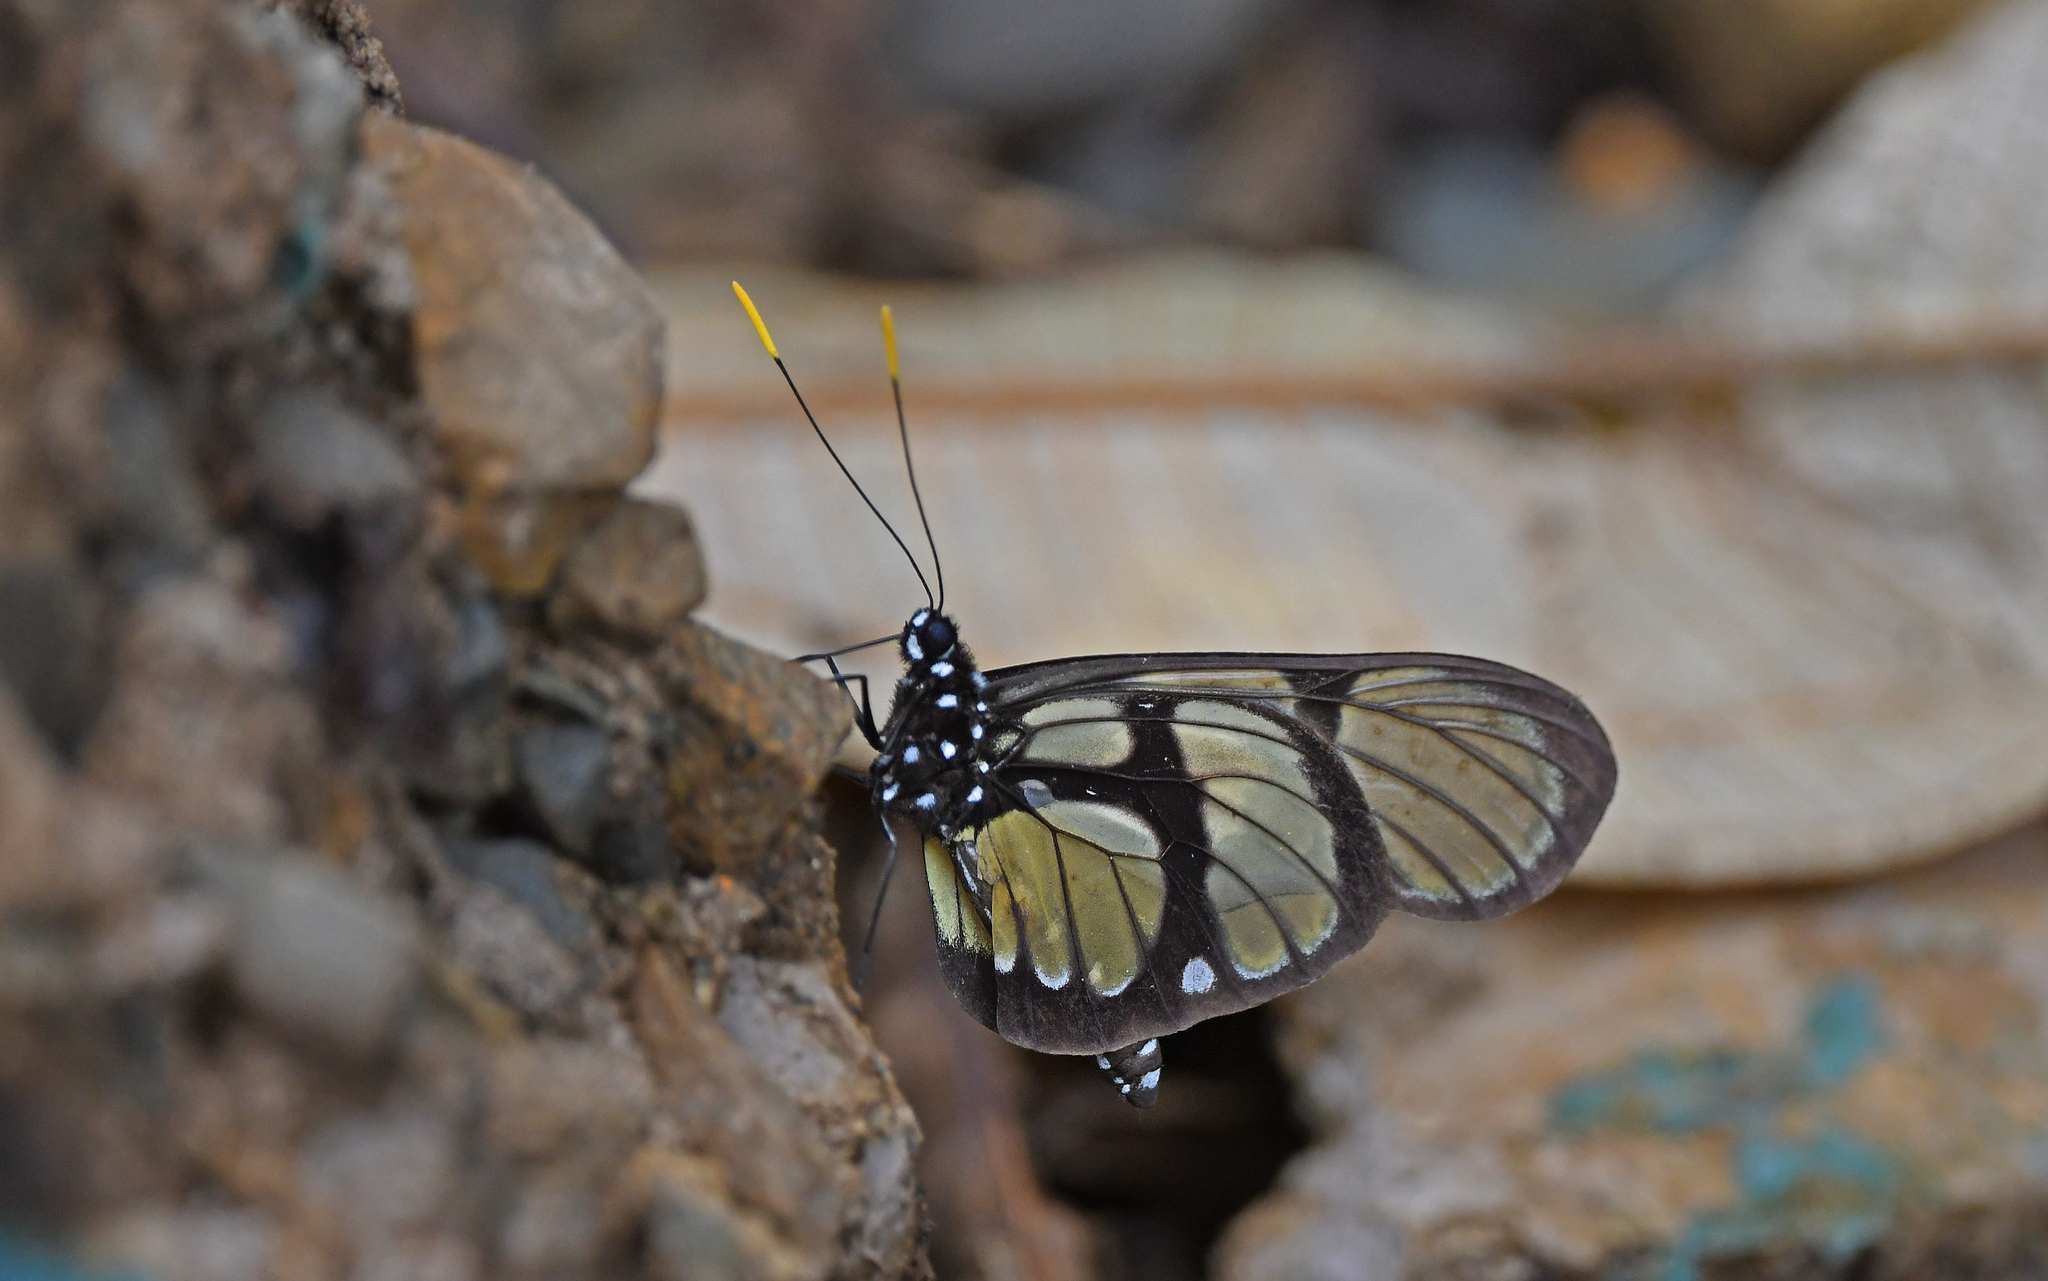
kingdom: Animalia
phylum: Arthropoda
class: Insecta
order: Lepidoptera
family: Pieridae
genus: Patia
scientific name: Patia orise
